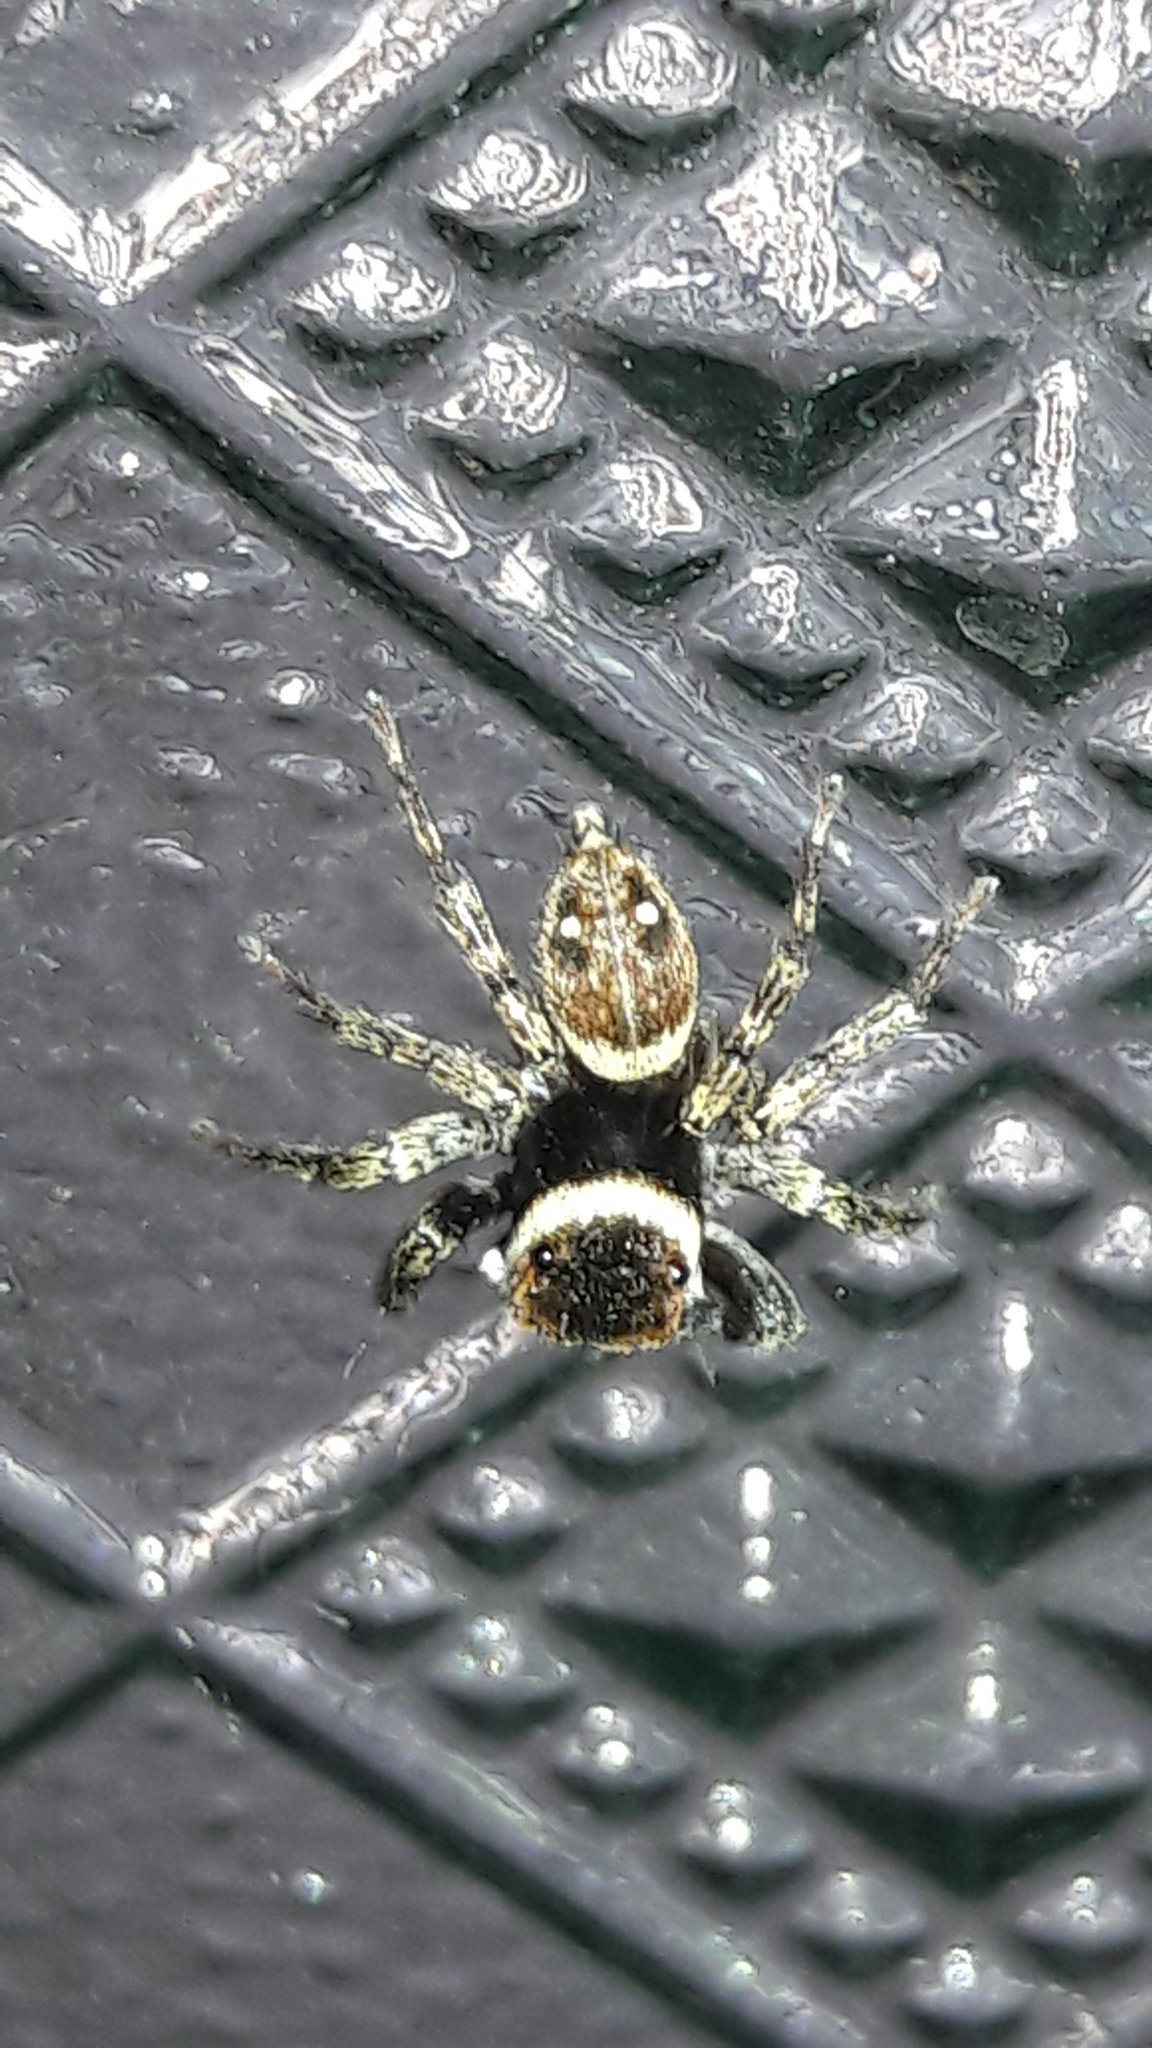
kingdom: Animalia
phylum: Arthropoda
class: Arachnida
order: Araneae
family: Salticidae
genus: Hasarius
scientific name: Hasarius adansoni
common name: Jumping spider
